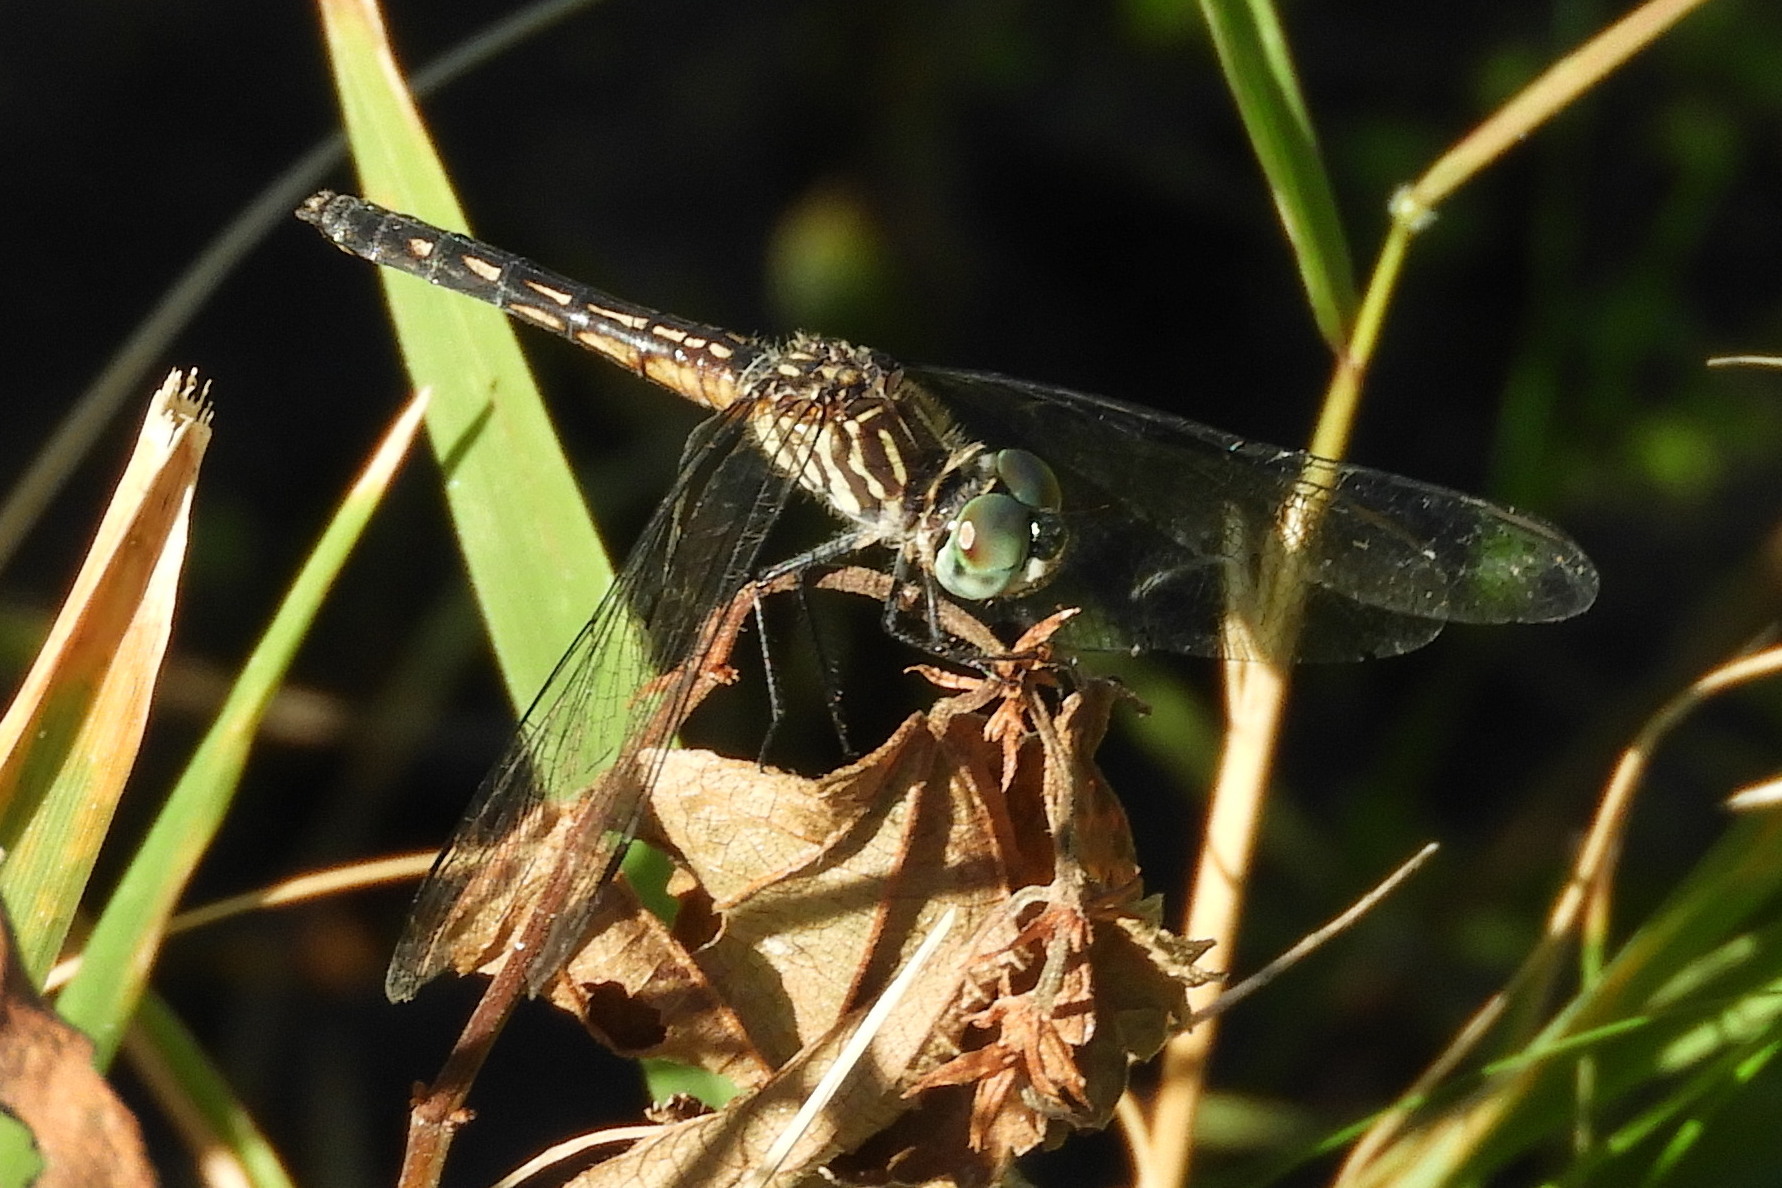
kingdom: Animalia
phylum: Arthropoda
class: Insecta
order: Odonata
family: Libellulidae
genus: Pachydiplax
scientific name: Pachydiplax longipennis
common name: Blue dasher
